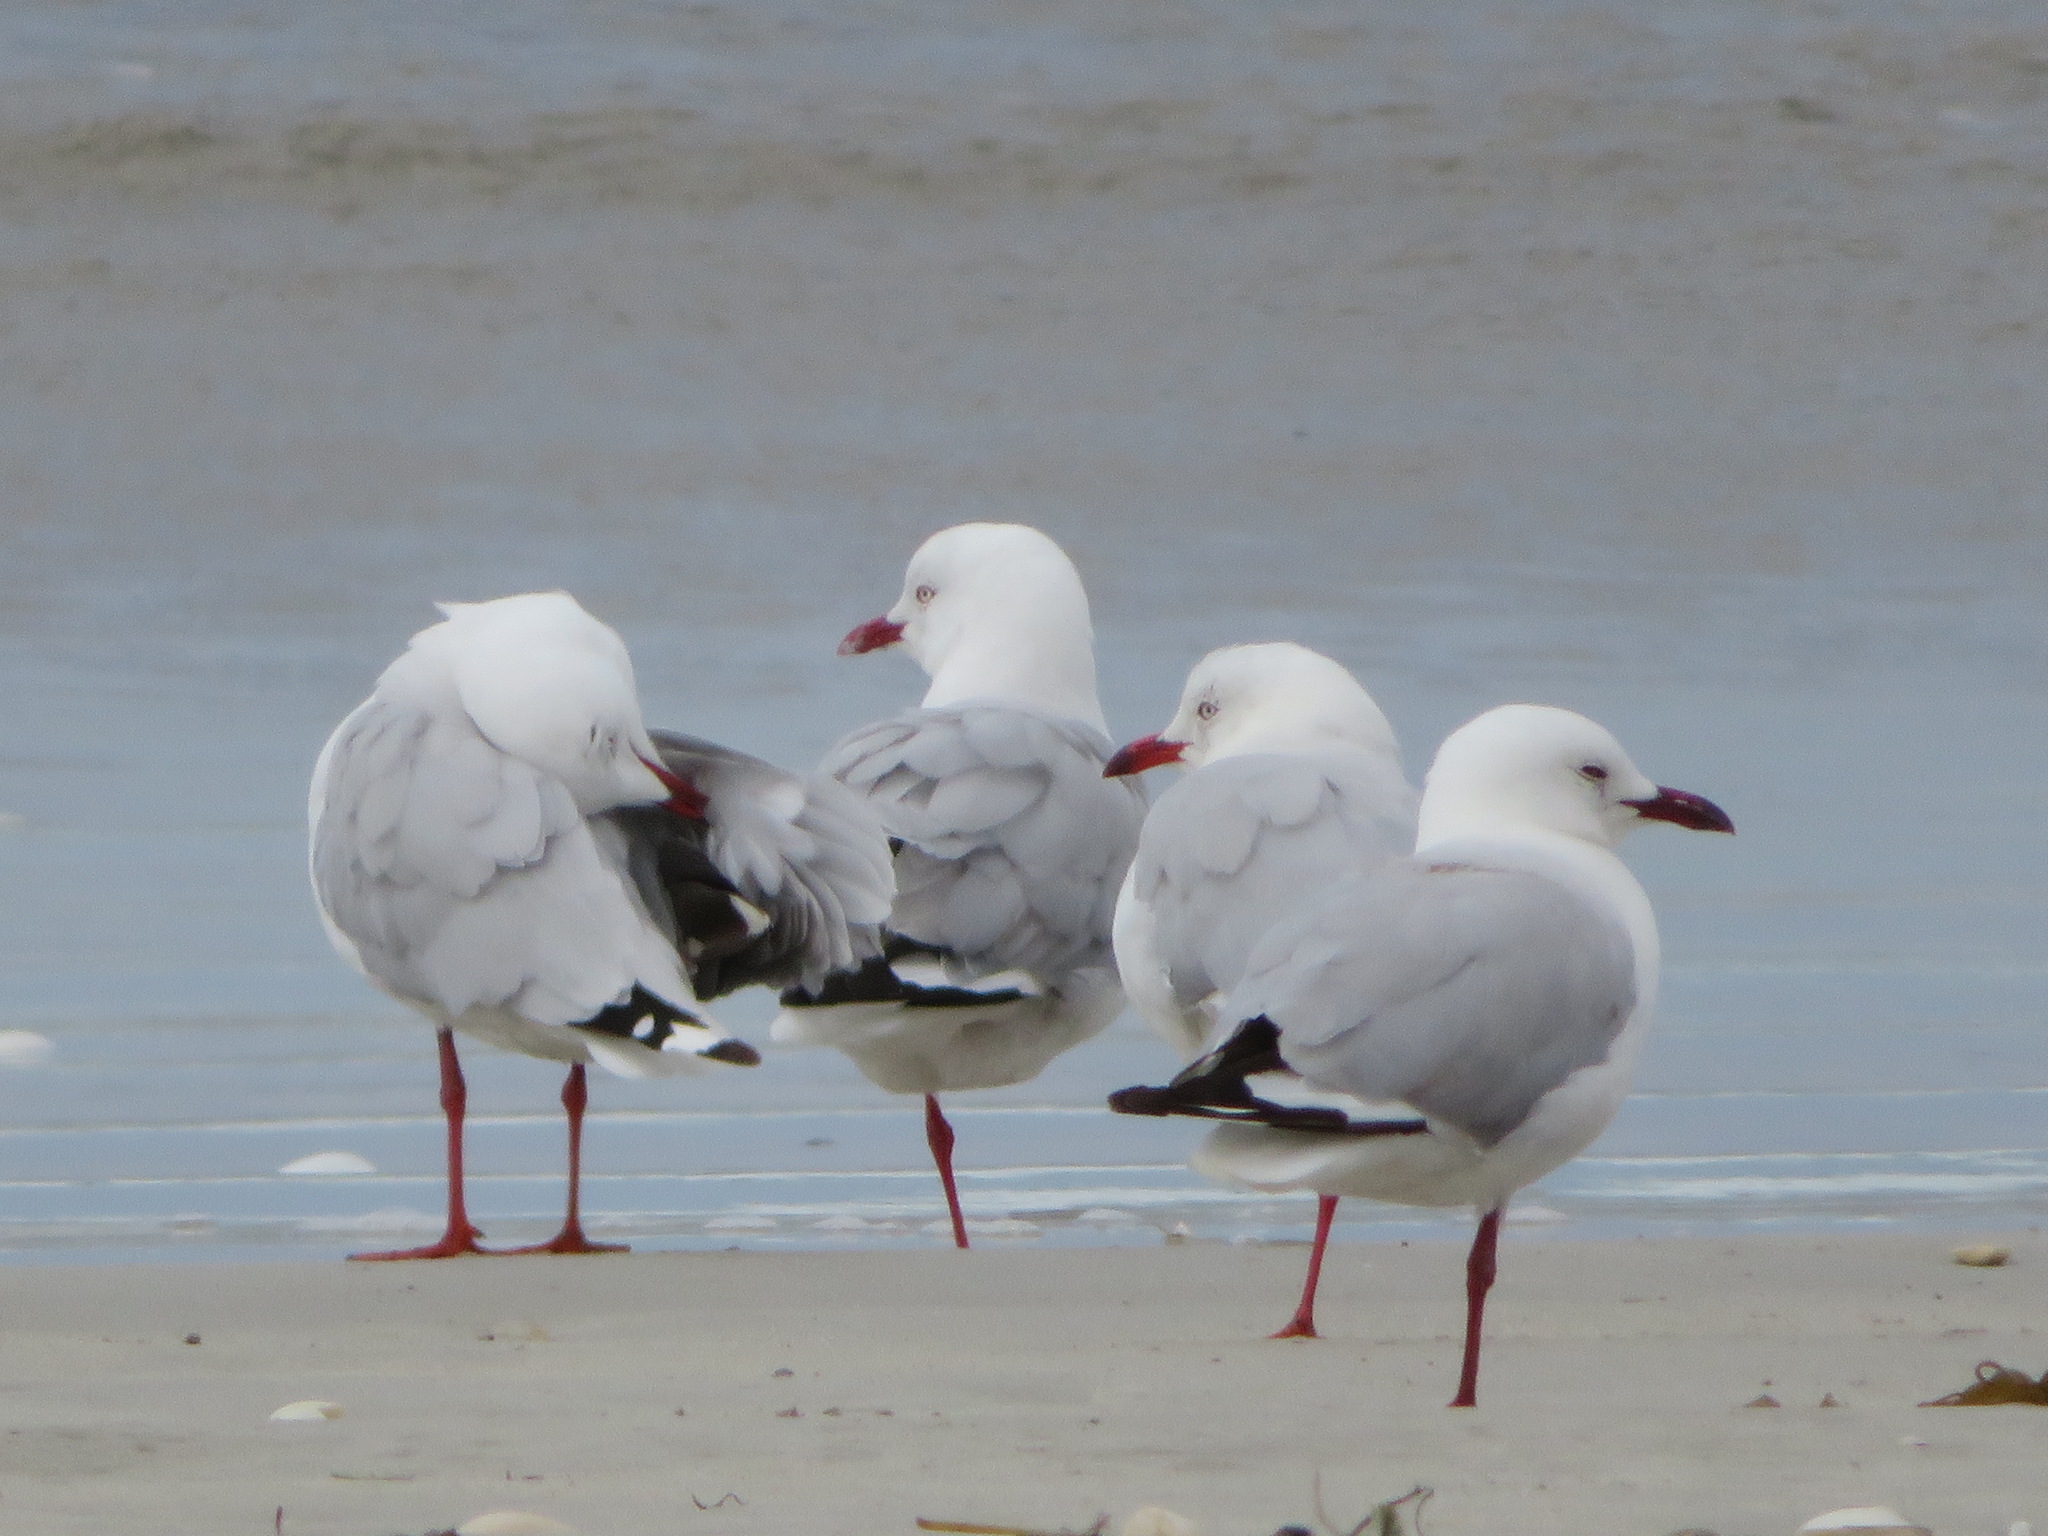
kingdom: Animalia
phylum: Chordata
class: Aves
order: Charadriiformes
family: Laridae
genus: Chroicocephalus
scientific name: Chroicocephalus novaehollandiae
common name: Silver gull
